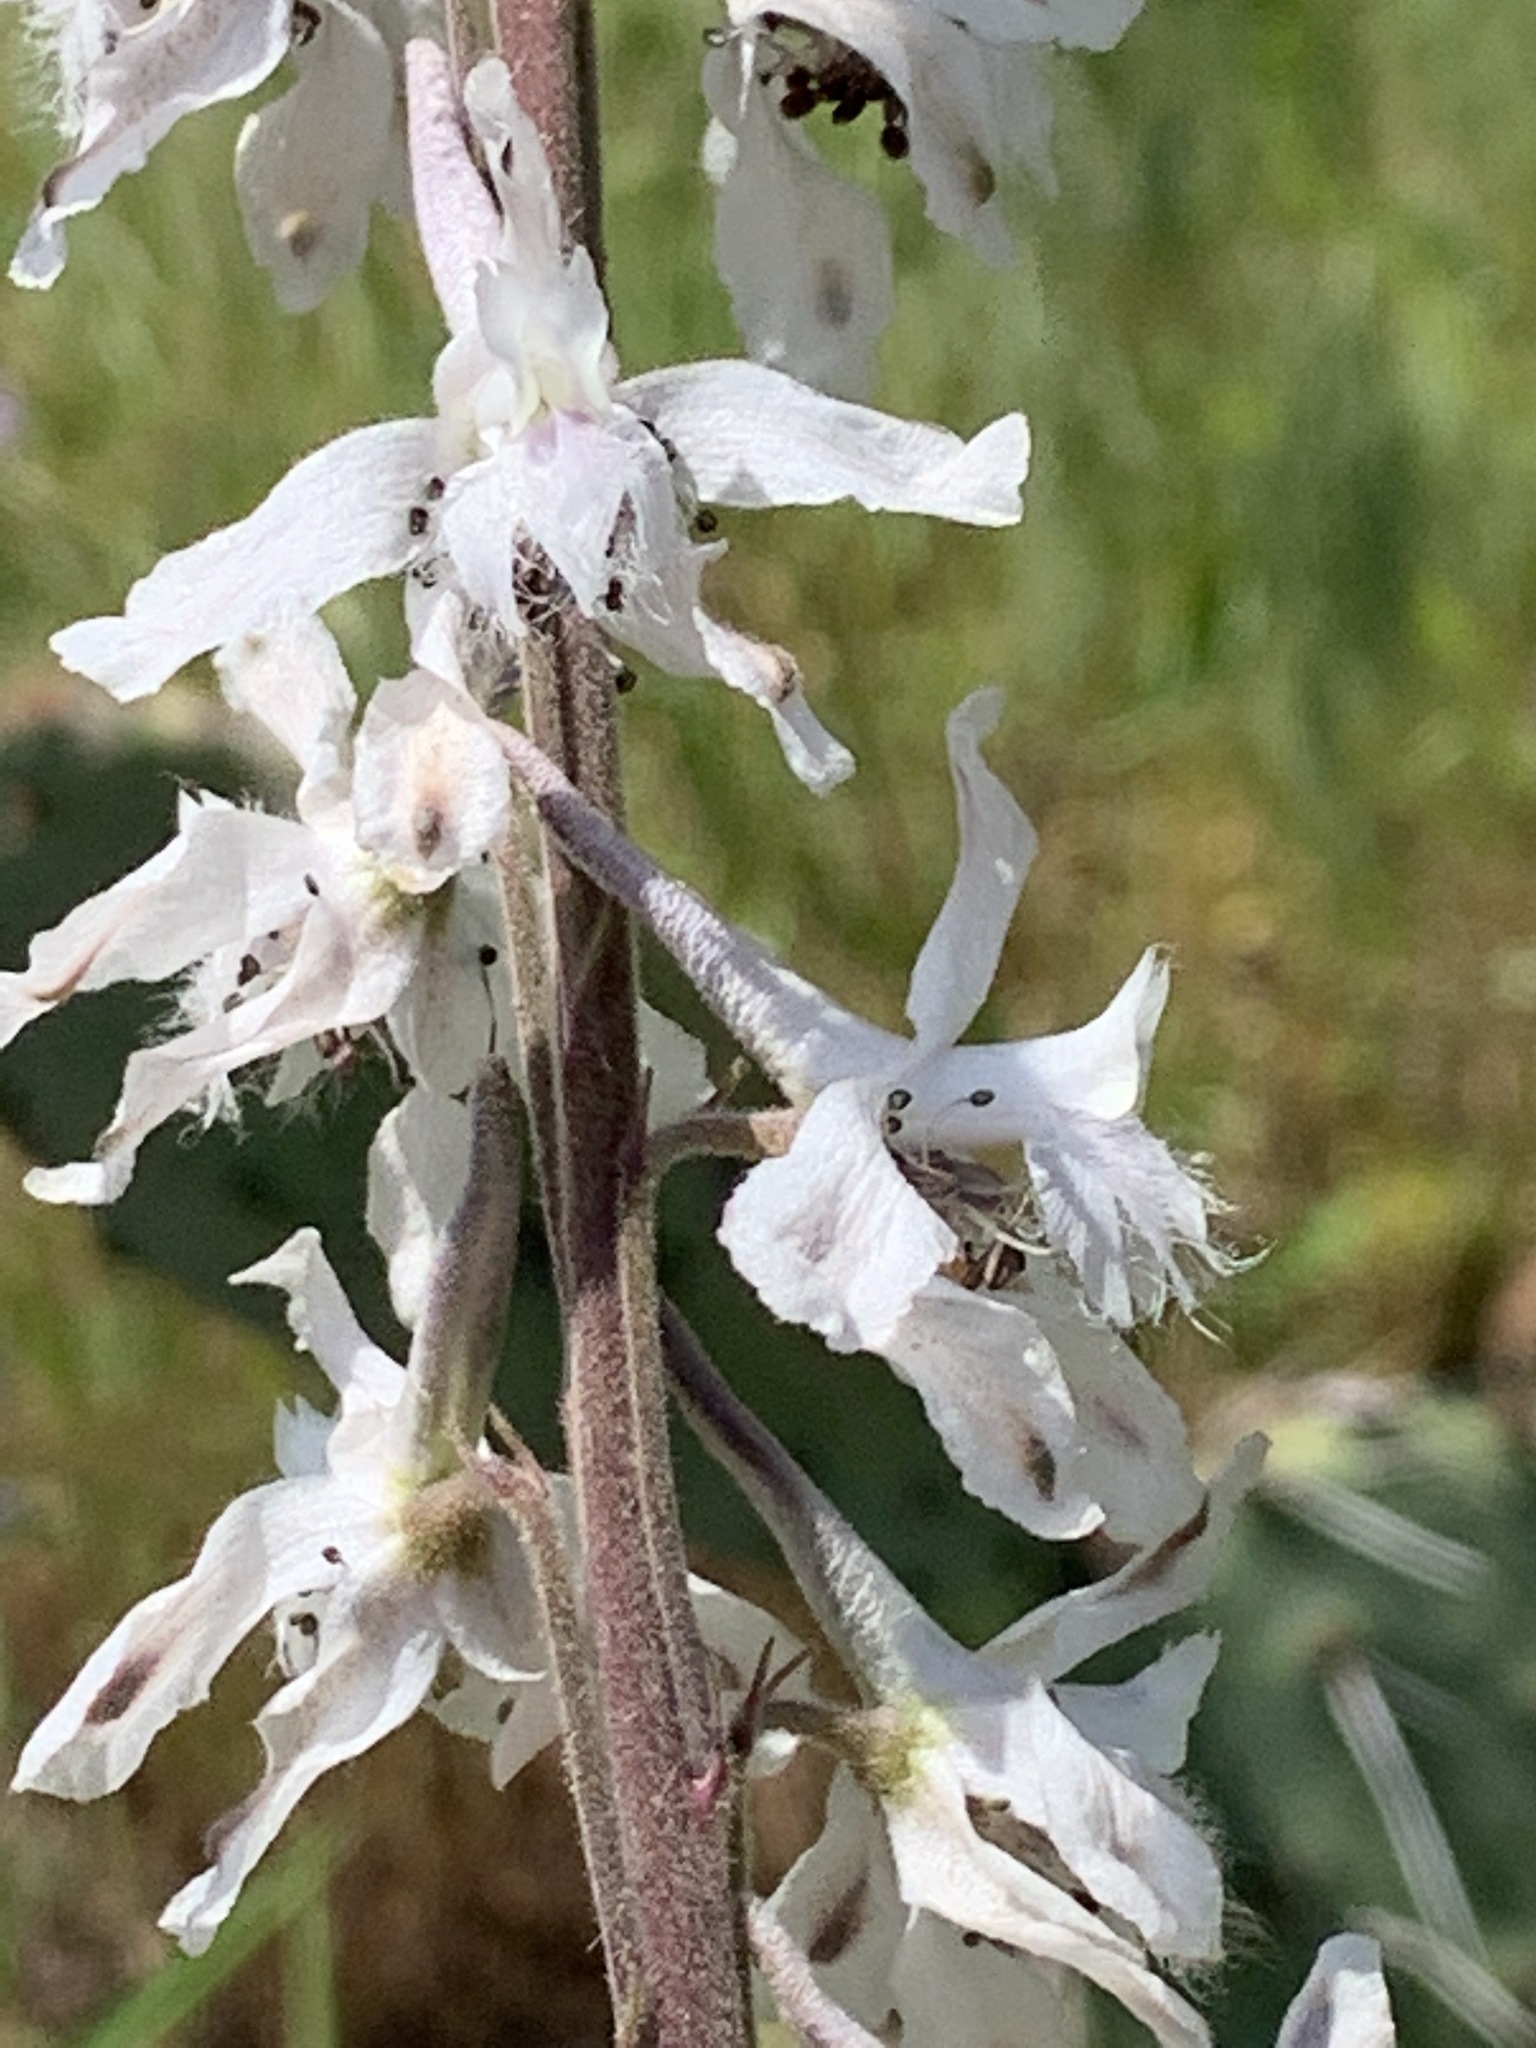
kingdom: Plantae
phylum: Tracheophyta
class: Magnoliopsida
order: Ranunculales
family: Ranunculaceae
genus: Delphinium
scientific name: Delphinium carolinianum
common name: Carolina larkspur
